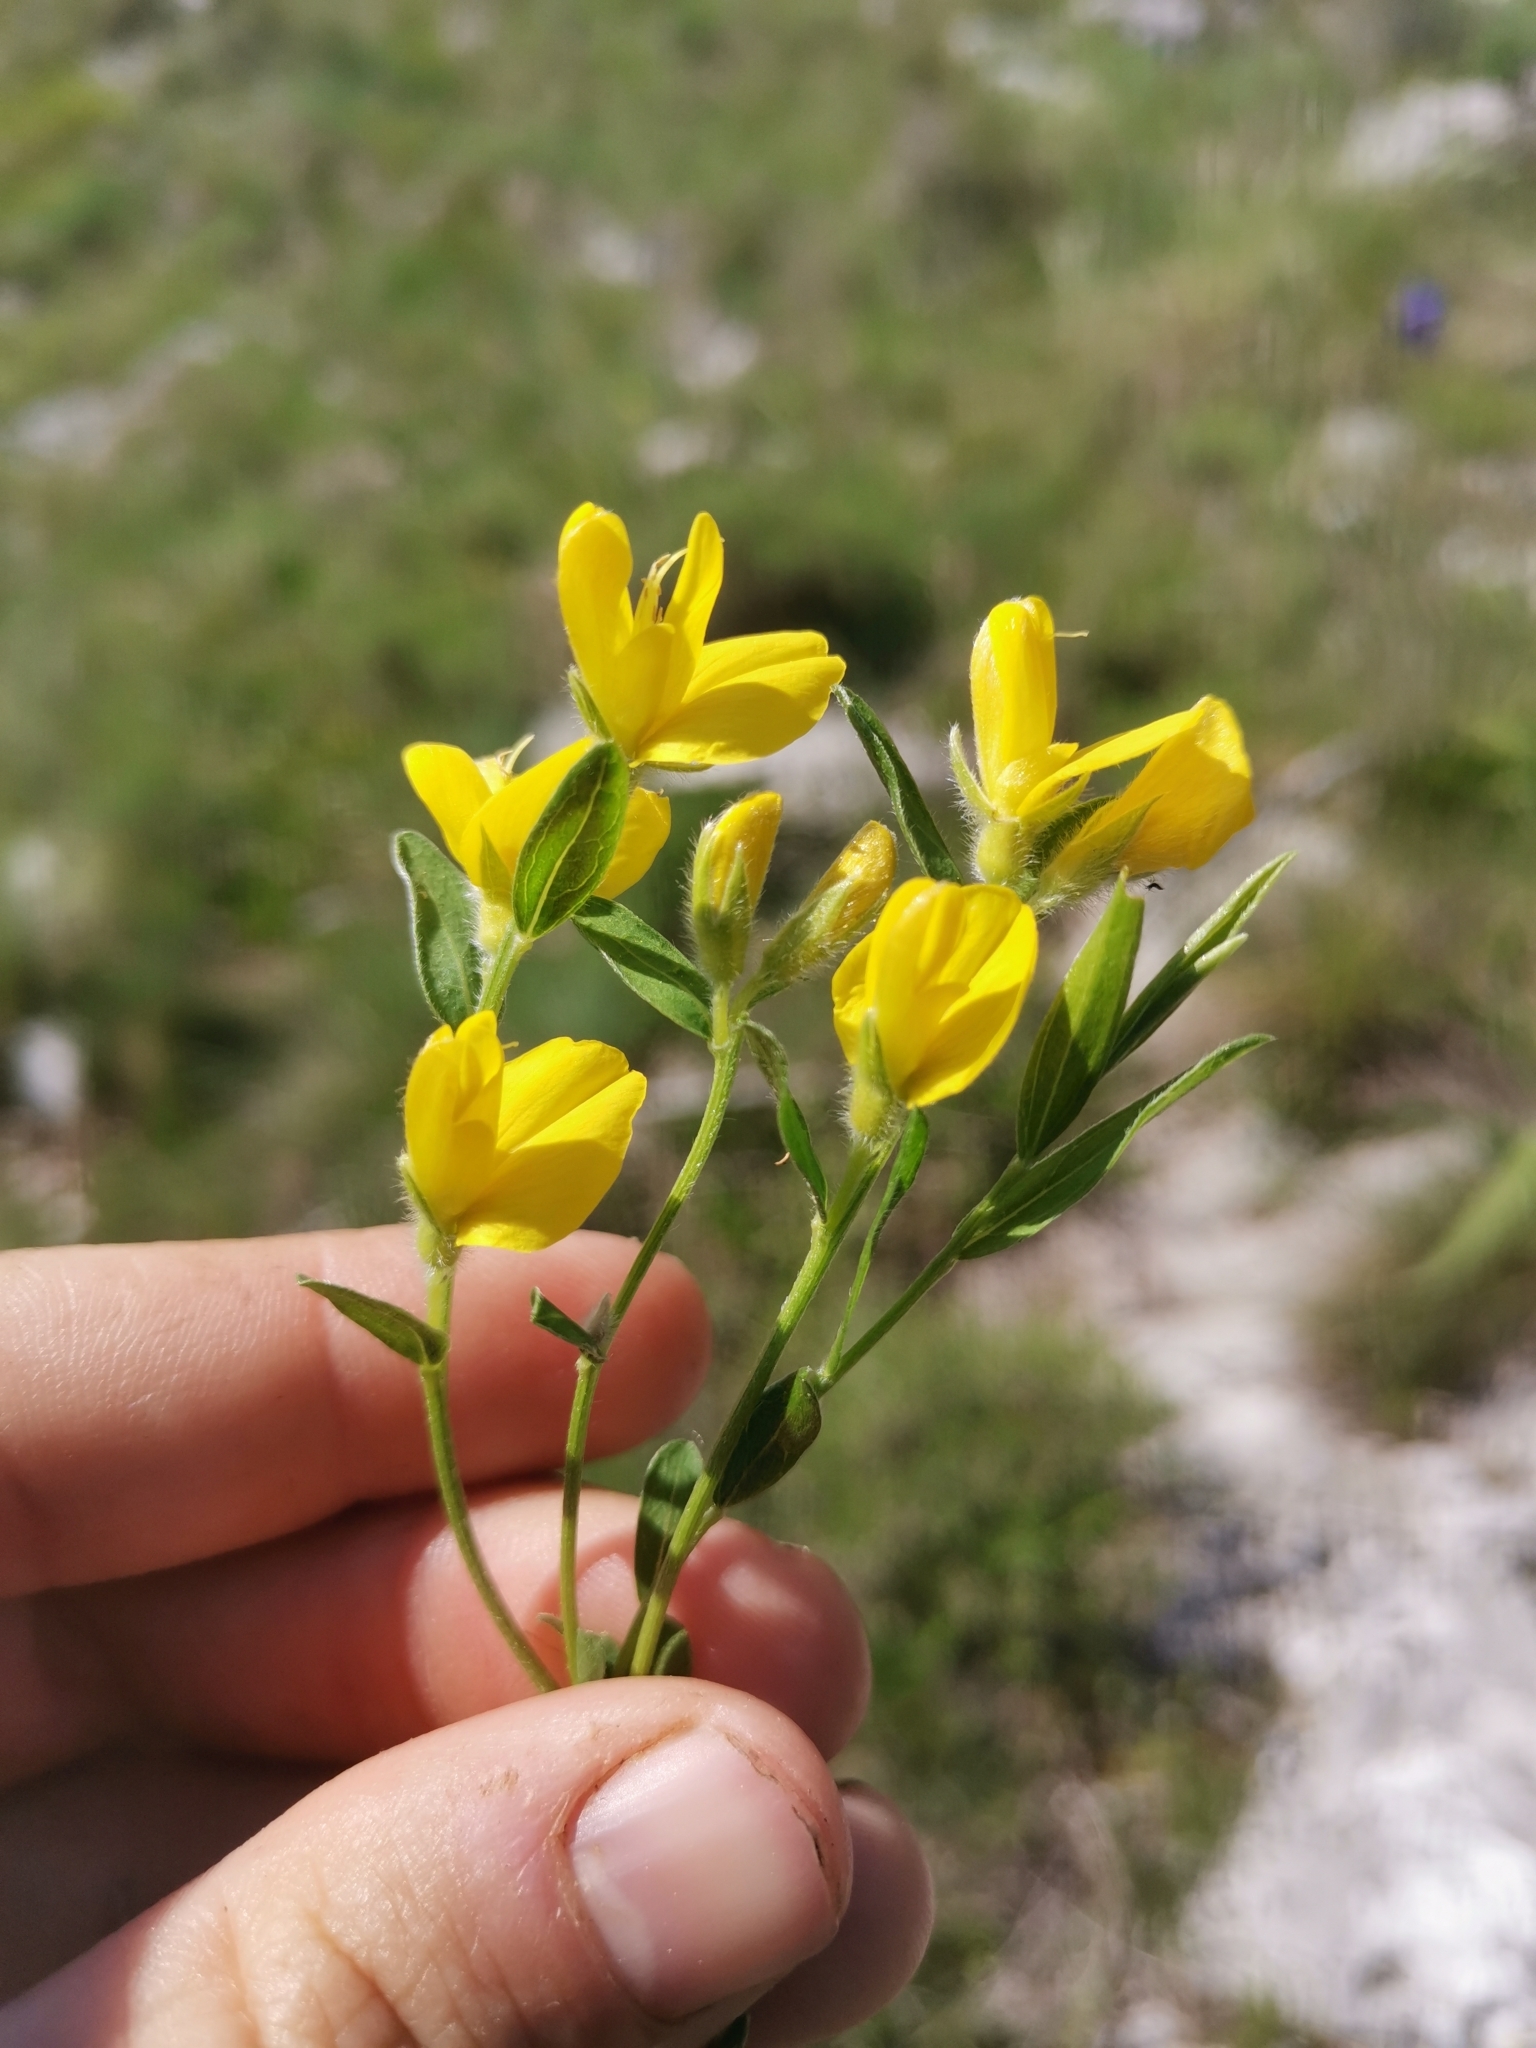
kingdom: Plantae
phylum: Tracheophyta
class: Magnoliopsida
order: Fabales
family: Fabaceae
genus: Genista
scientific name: Genista sericea
